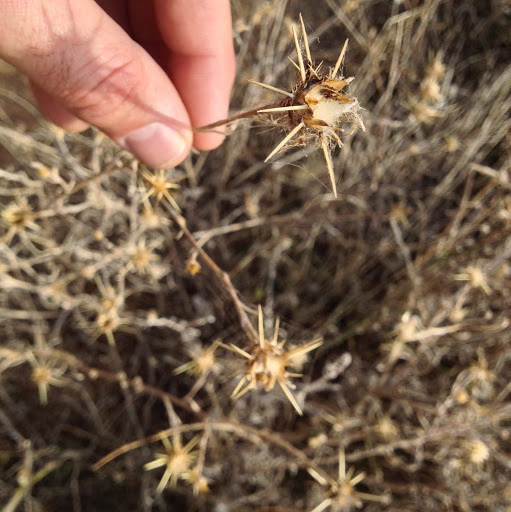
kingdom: Plantae
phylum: Tracheophyta
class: Magnoliopsida
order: Asterales
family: Asteraceae
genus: Centaurea
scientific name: Centaurea solstitialis
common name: Yellow star-thistle
